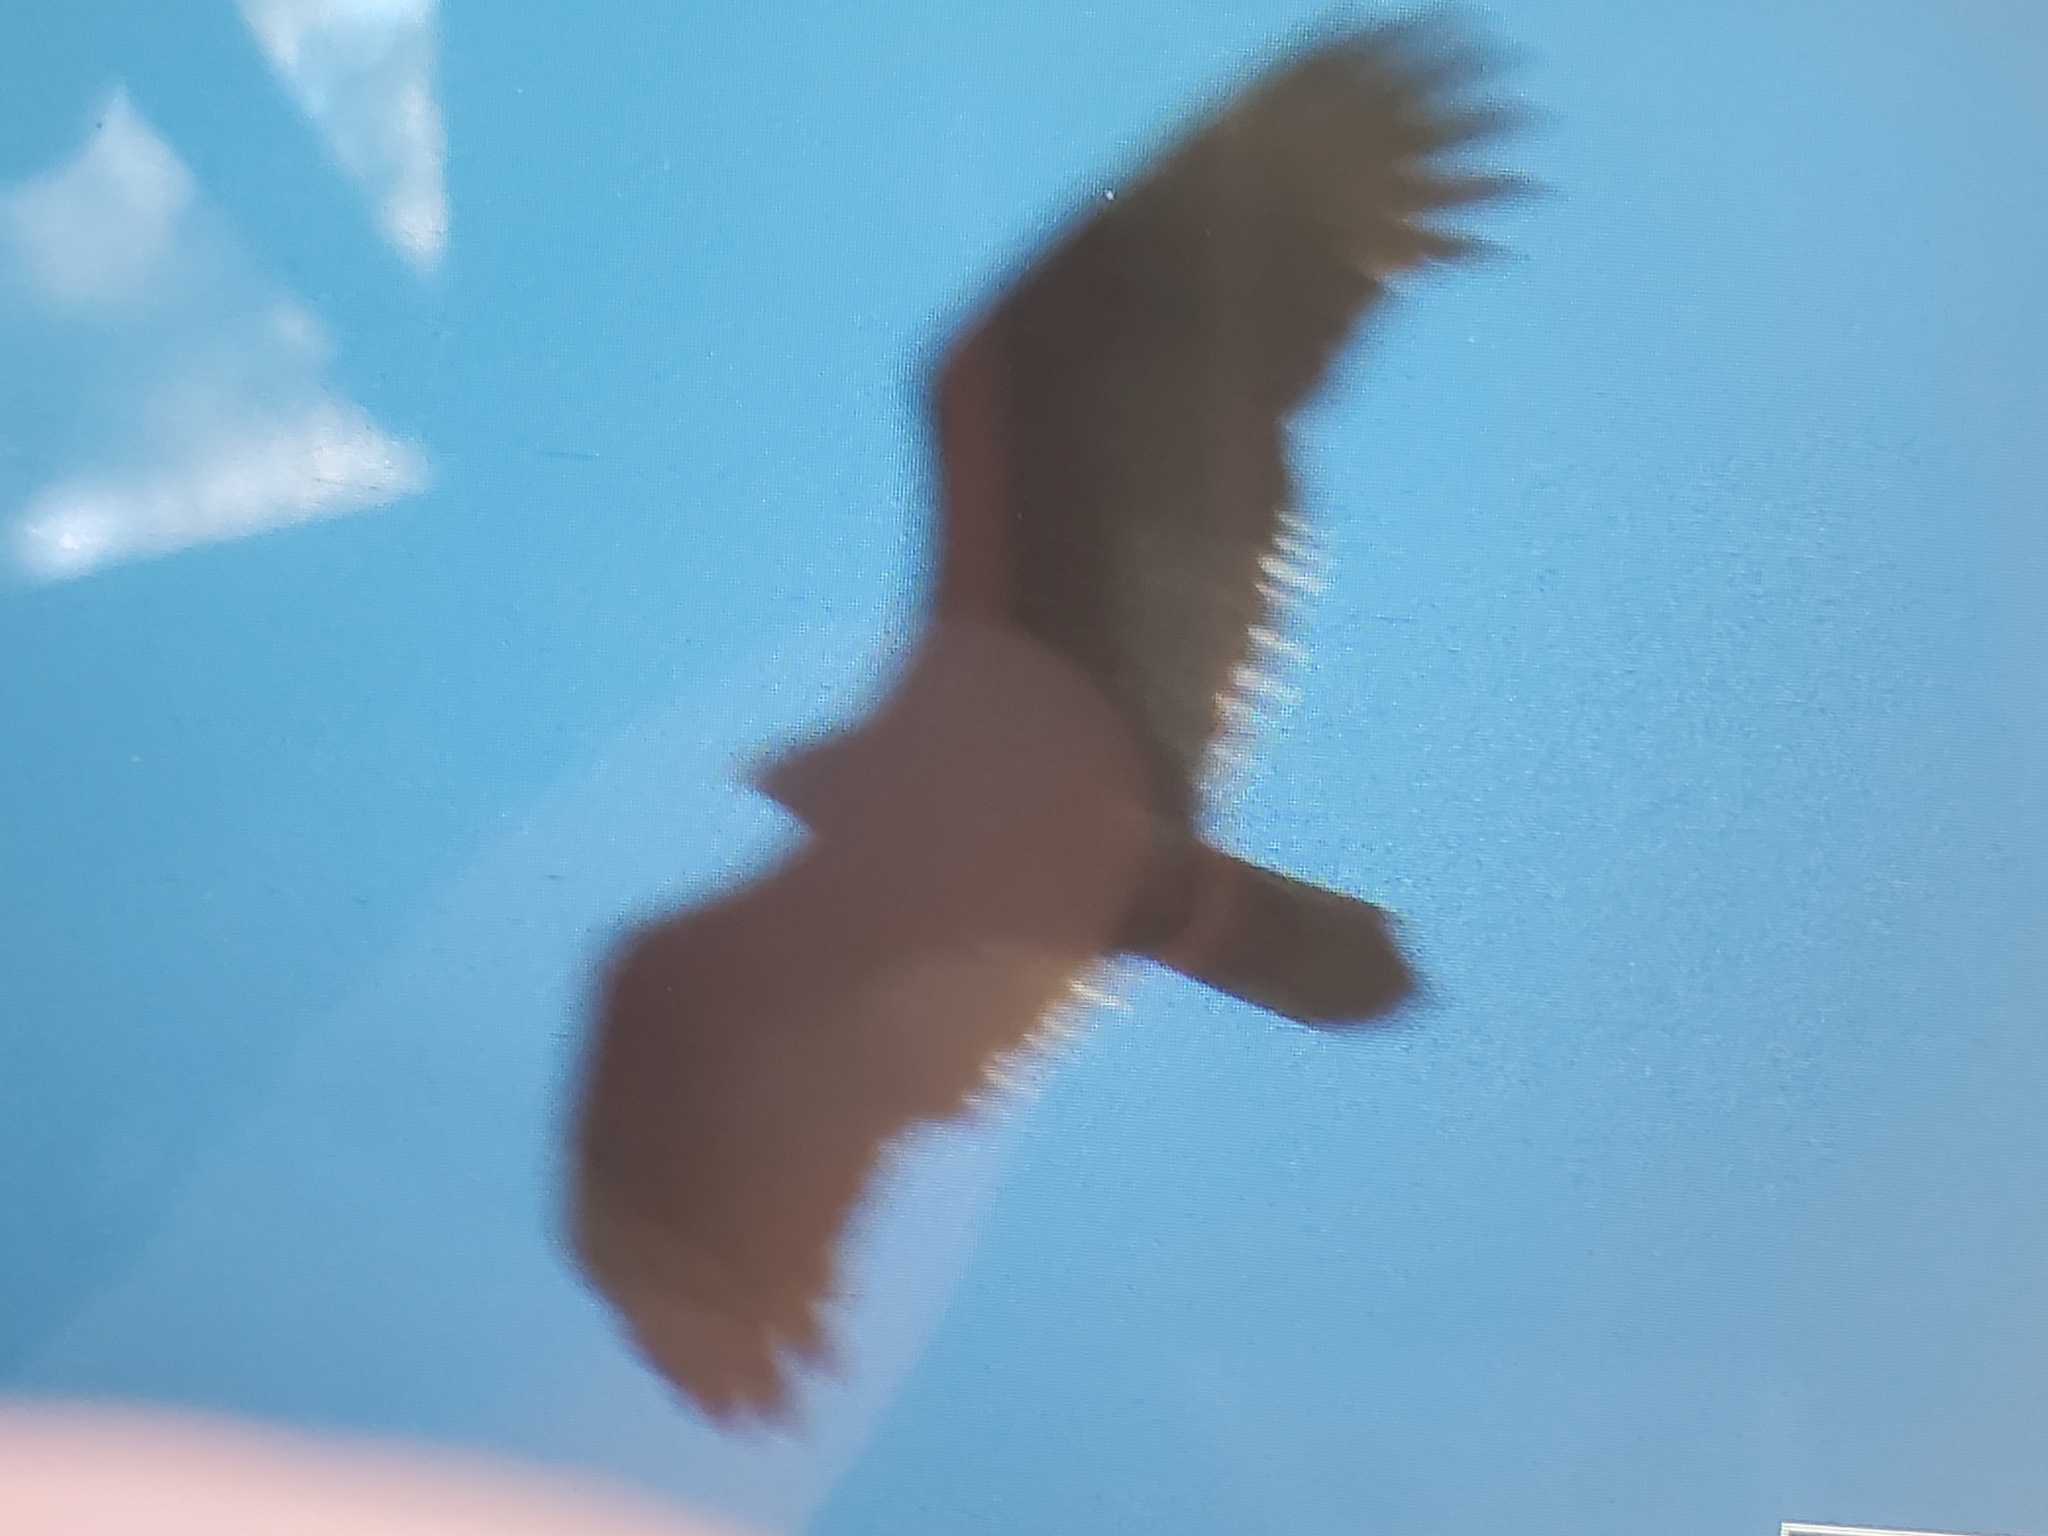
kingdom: Animalia
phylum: Chordata
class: Aves
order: Accipitriformes
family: Cathartidae
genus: Cathartes
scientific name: Cathartes aura
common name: Turkey vulture
